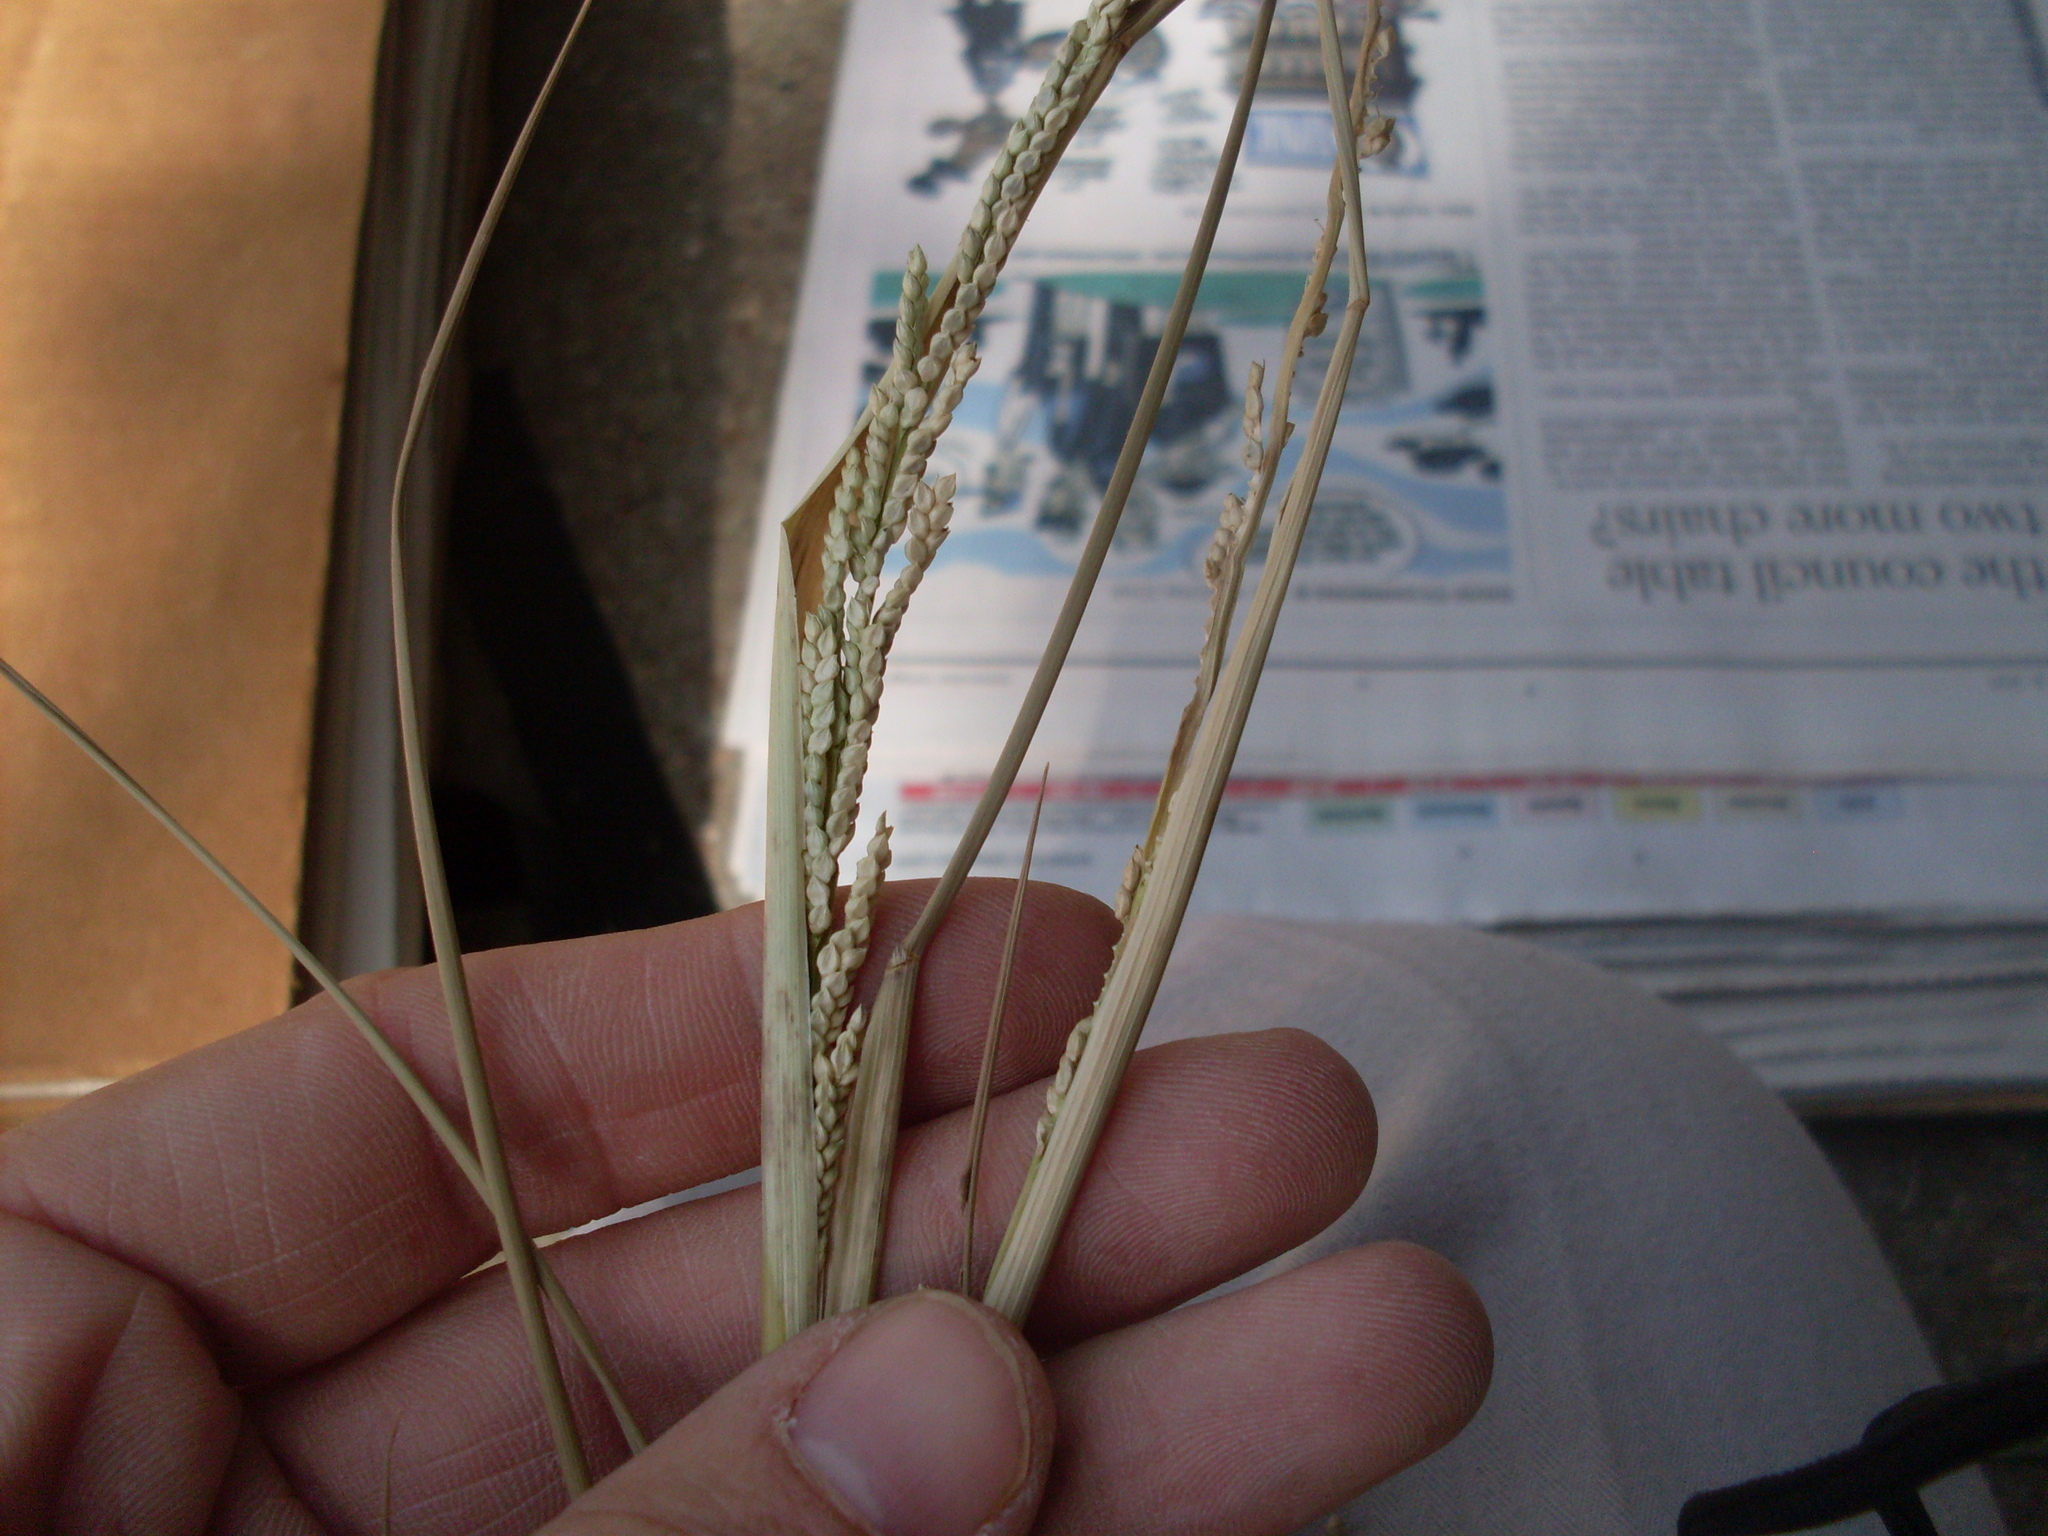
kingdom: Plantae
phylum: Tracheophyta
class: Liliopsida
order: Poales
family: Poaceae
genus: Setaria
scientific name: Setaria geminata
